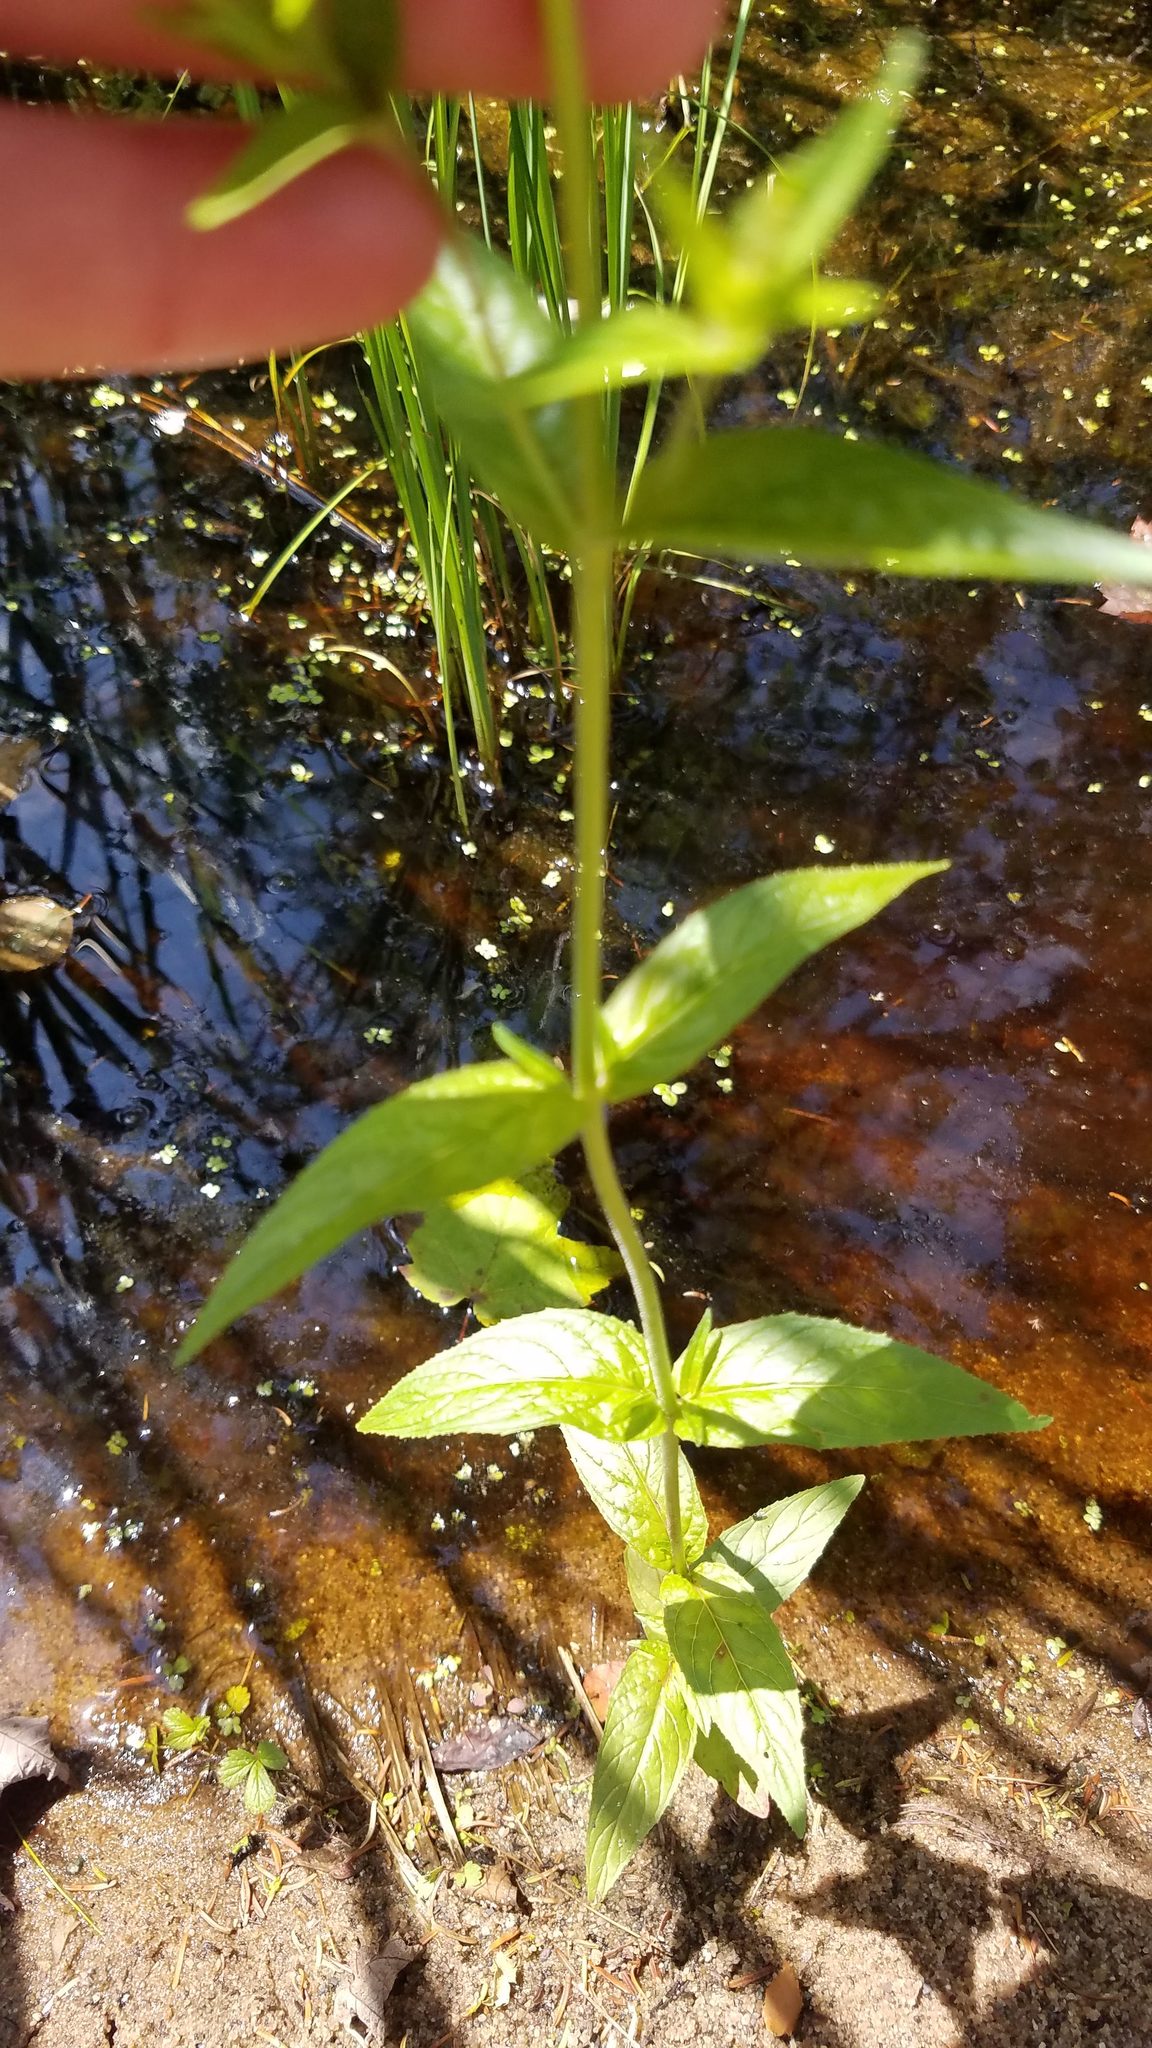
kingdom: Plantae
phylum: Tracheophyta
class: Magnoliopsida
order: Myrtales
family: Onagraceae
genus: Epilobium
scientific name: Epilobium ciliatum
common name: American willowherb
